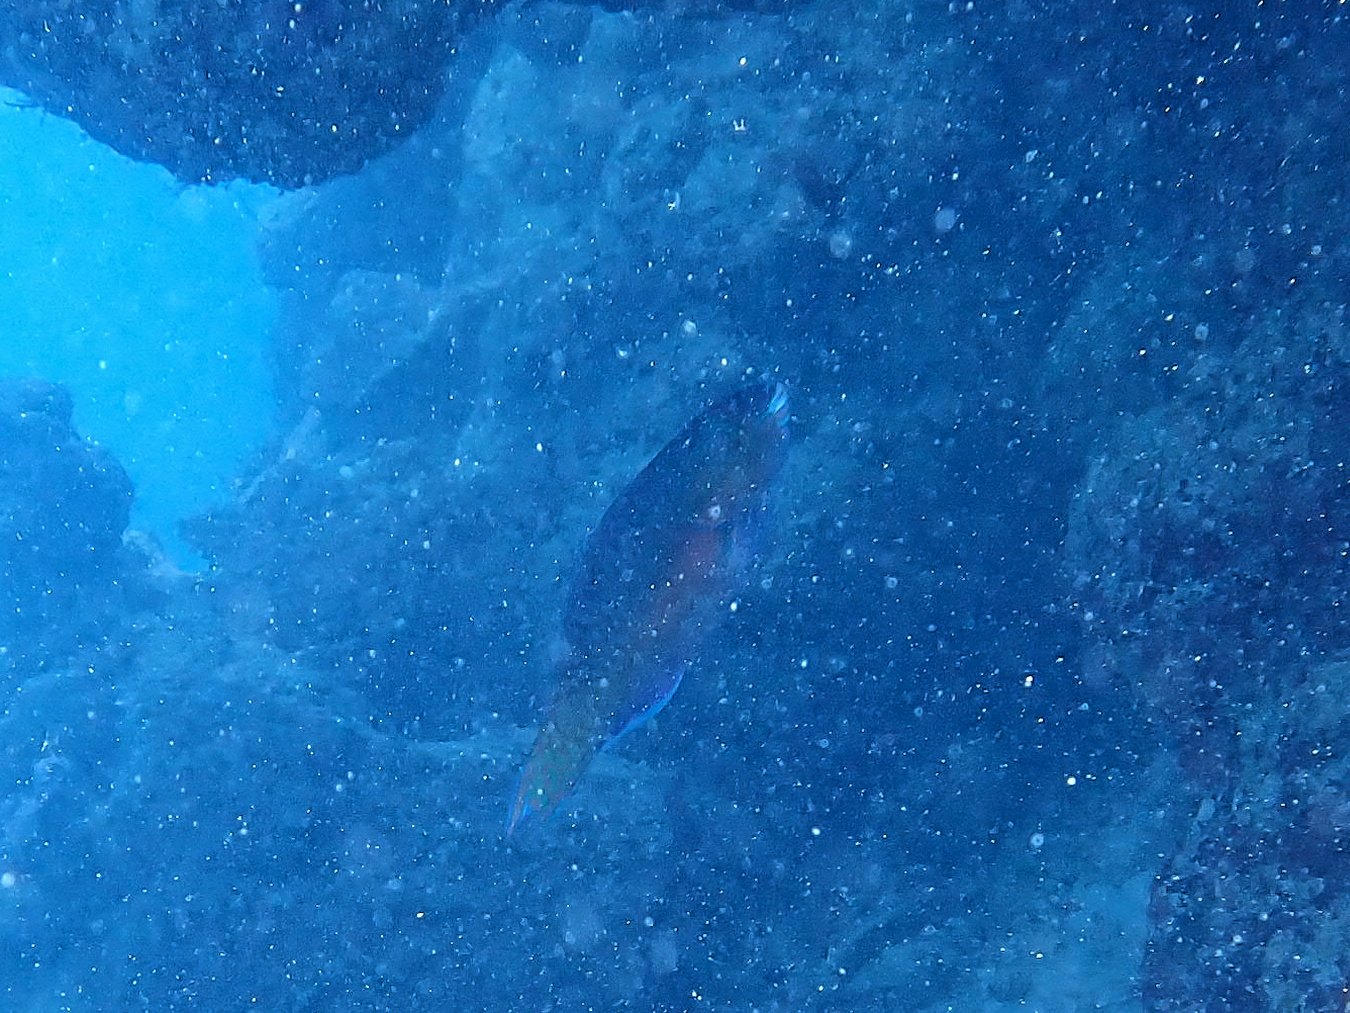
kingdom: Animalia
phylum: Chordata
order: Perciformes
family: Scaridae
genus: Scarus
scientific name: Scarus chameleon
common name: Chameleon parrotfish
